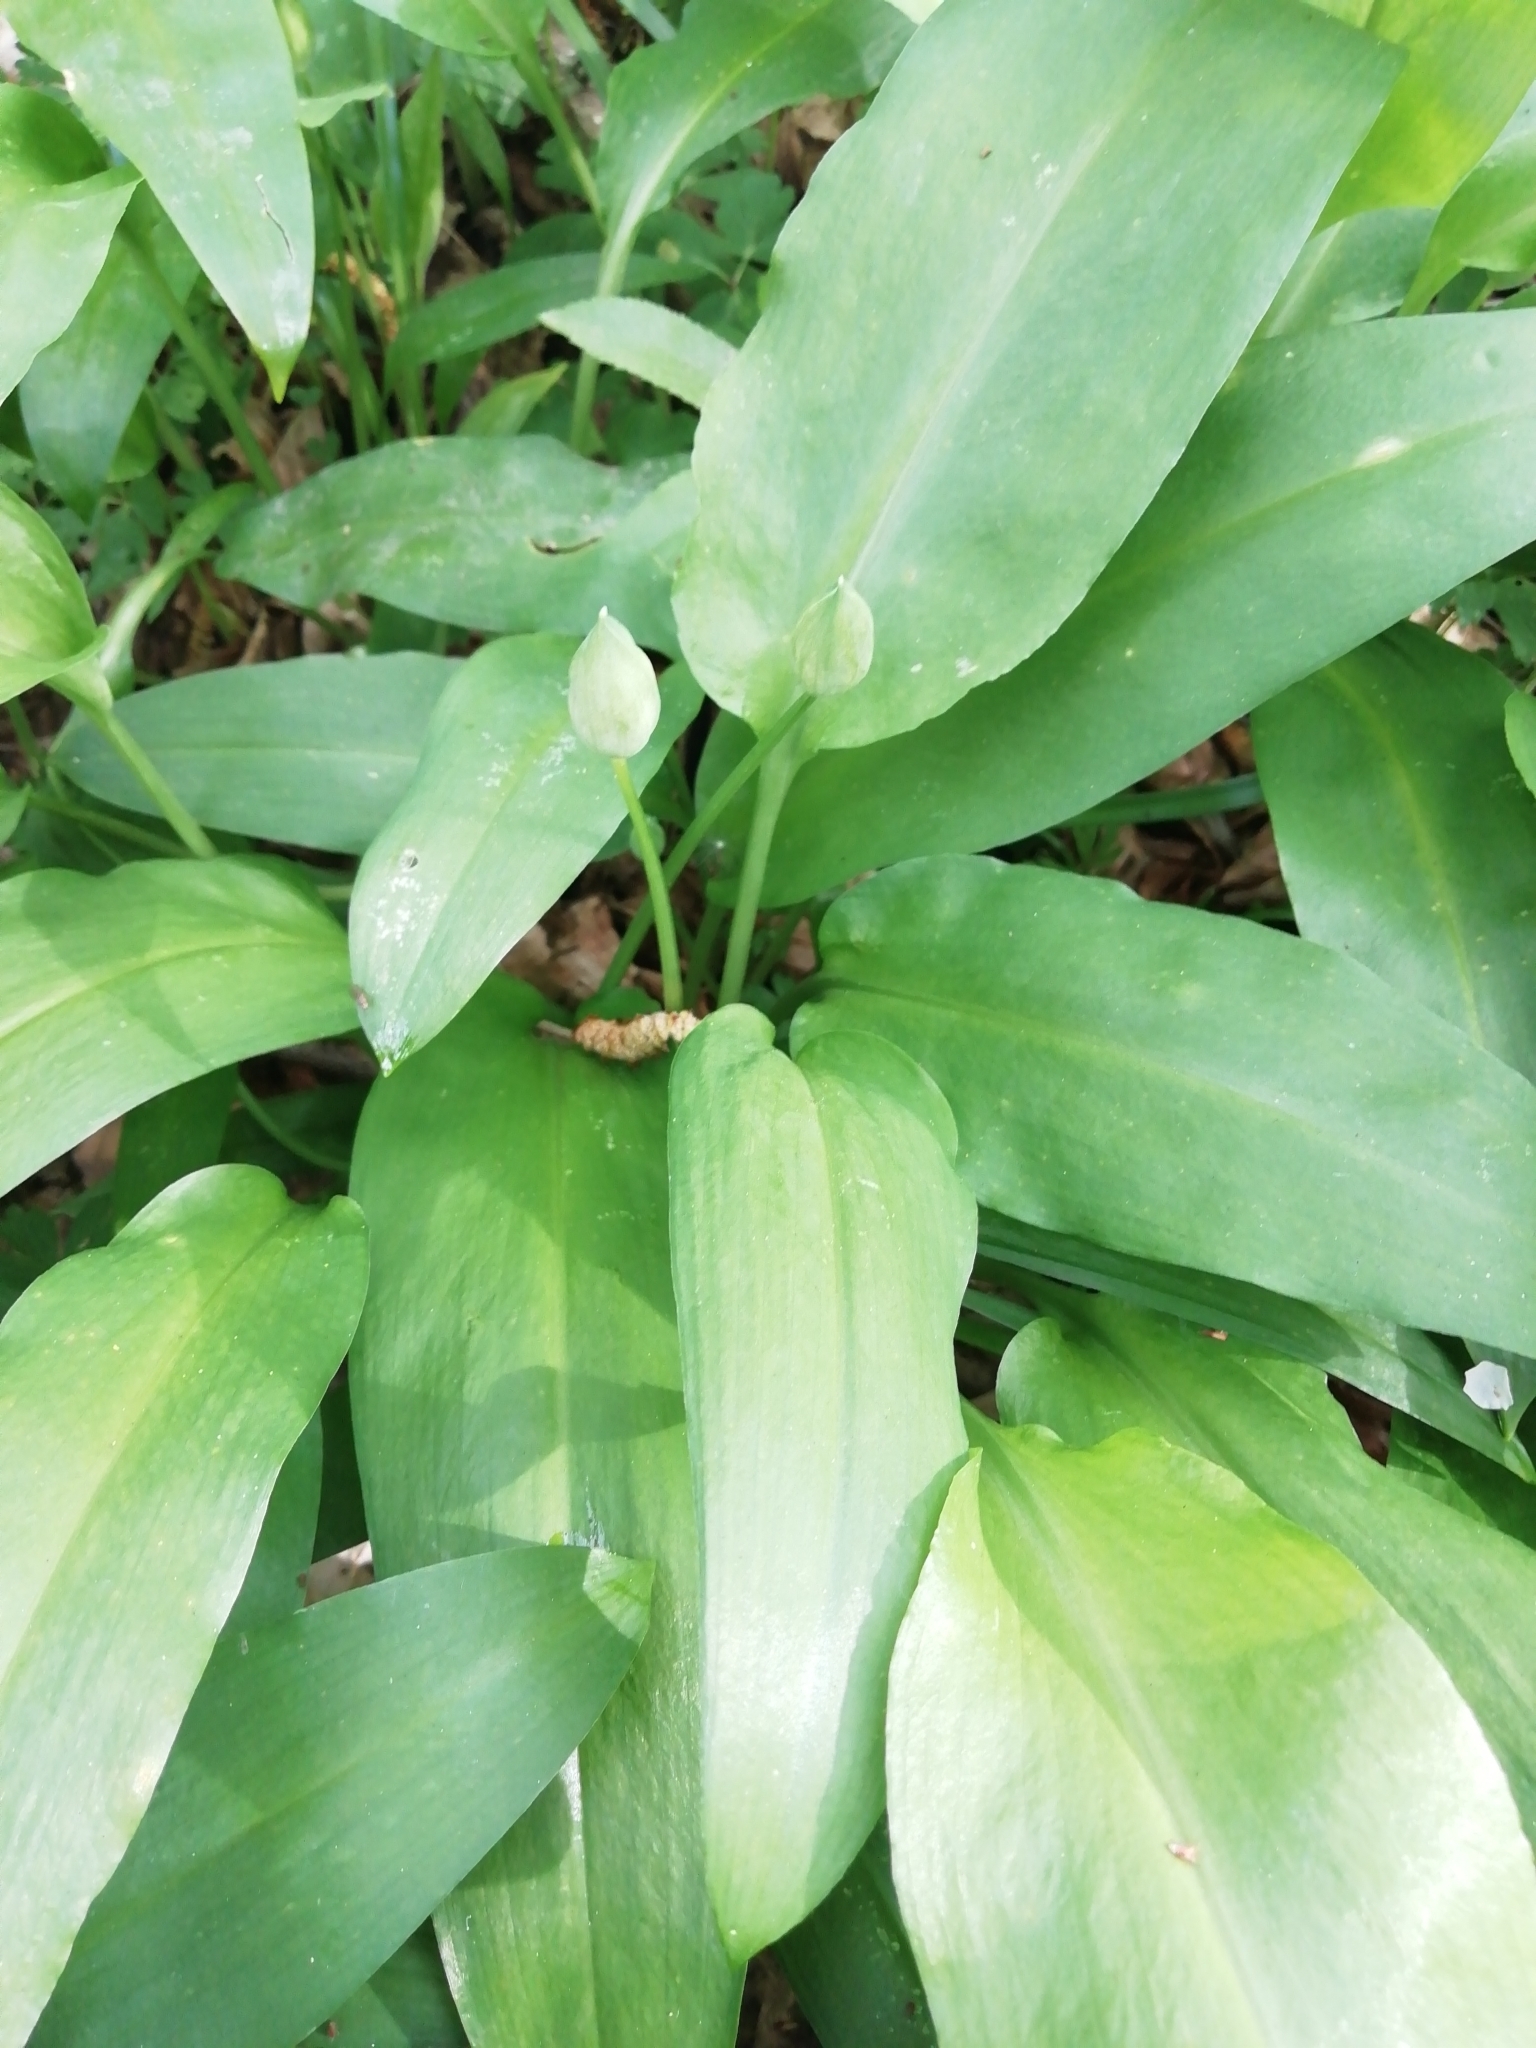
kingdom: Plantae
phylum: Tracheophyta
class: Liliopsida
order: Asparagales
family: Amaryllidaceae
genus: Allium
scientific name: Allium ursinum
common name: Ramsons
